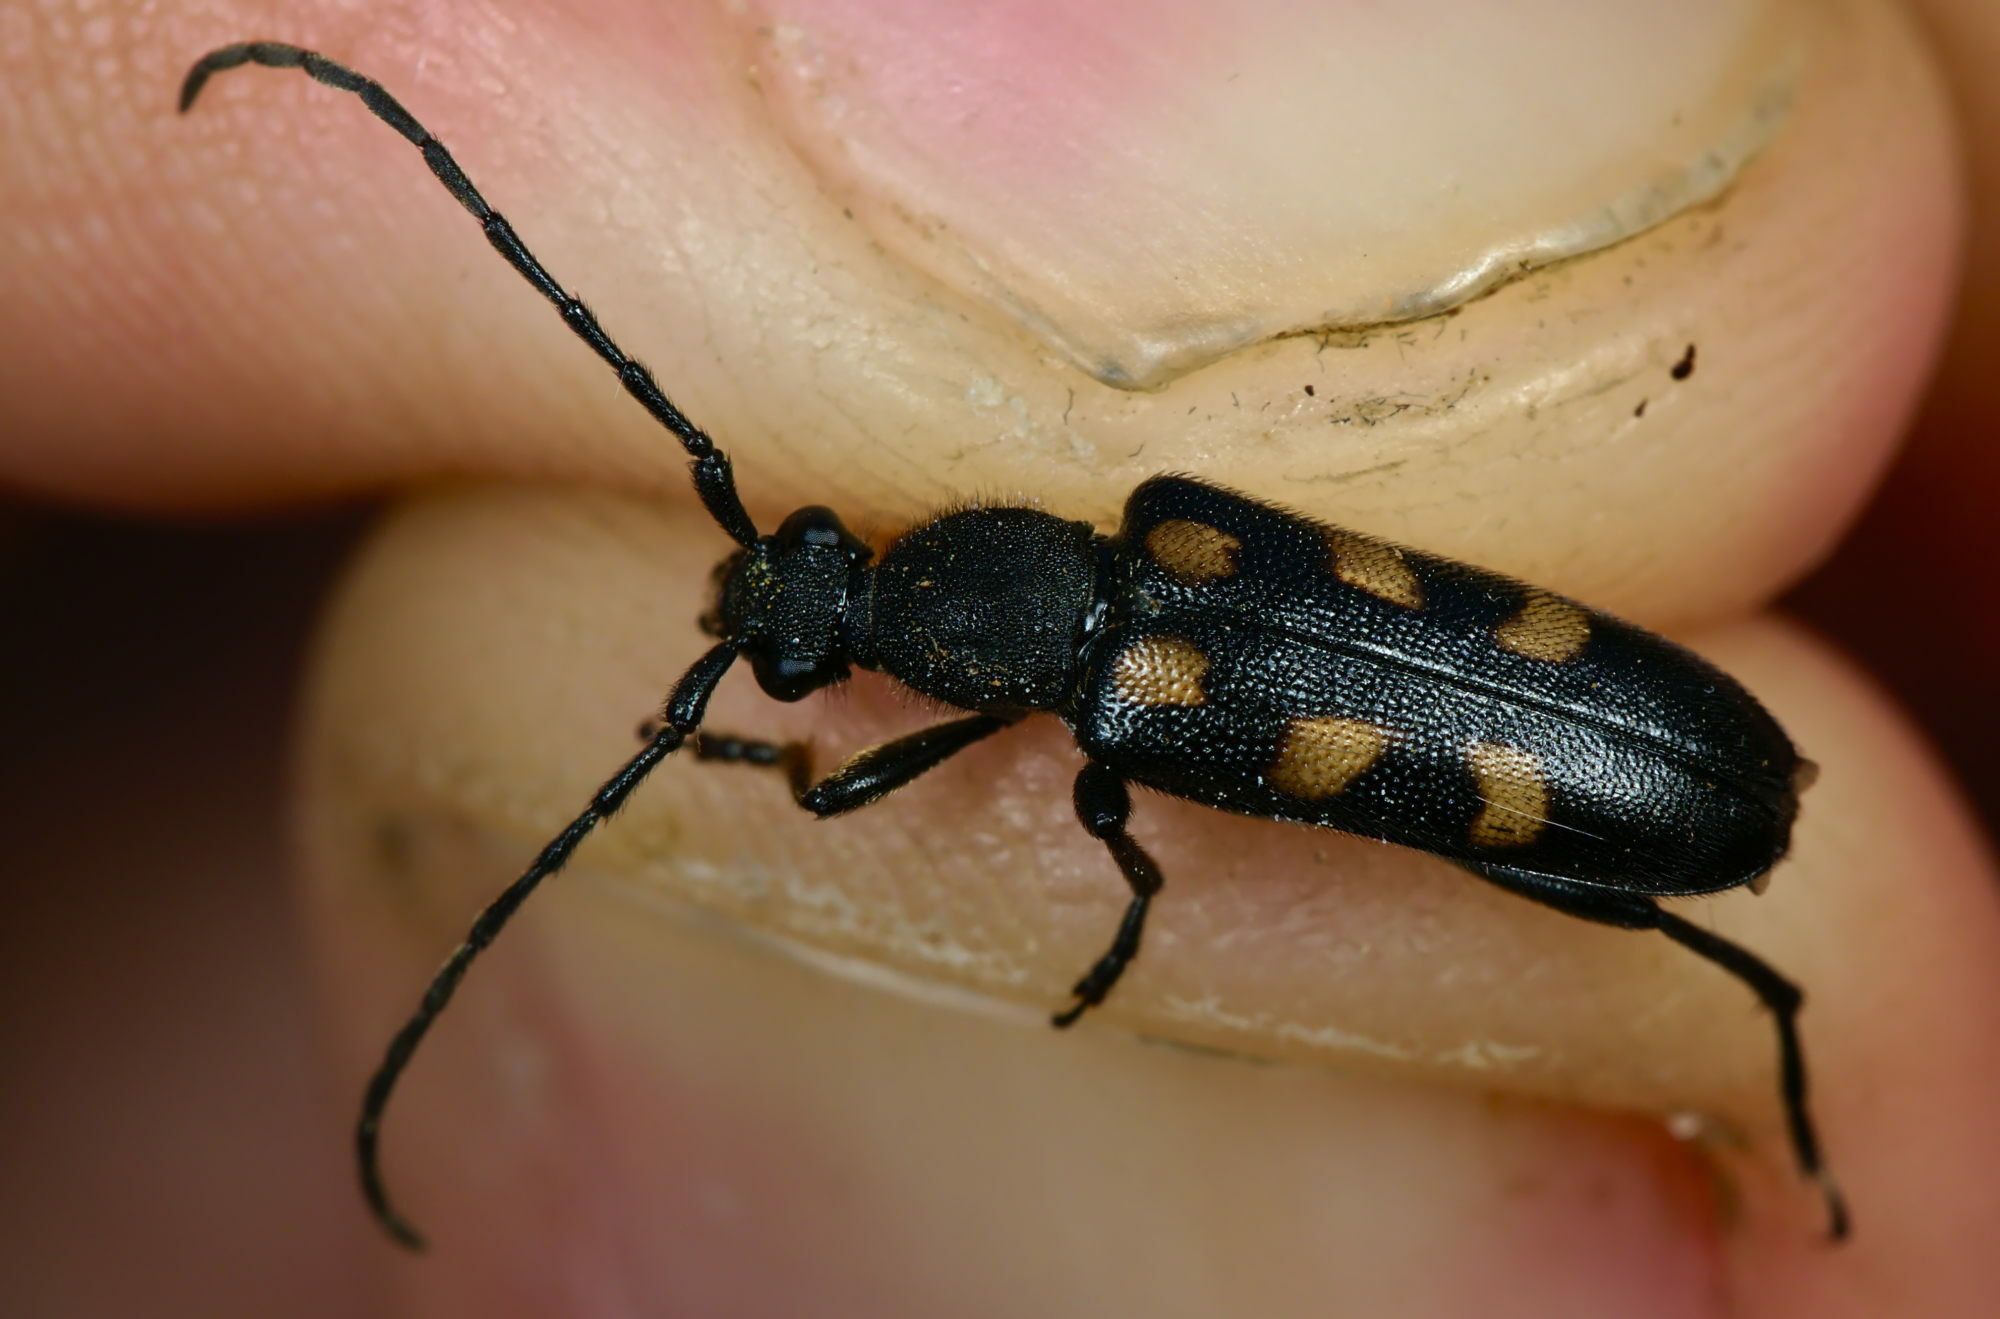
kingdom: Animalia
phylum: Arthropoda
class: Insecta
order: Coleoptera
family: Cerambycidae
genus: Anoplodera
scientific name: Anoplodera sexguttata
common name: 6 spotted longhorn
